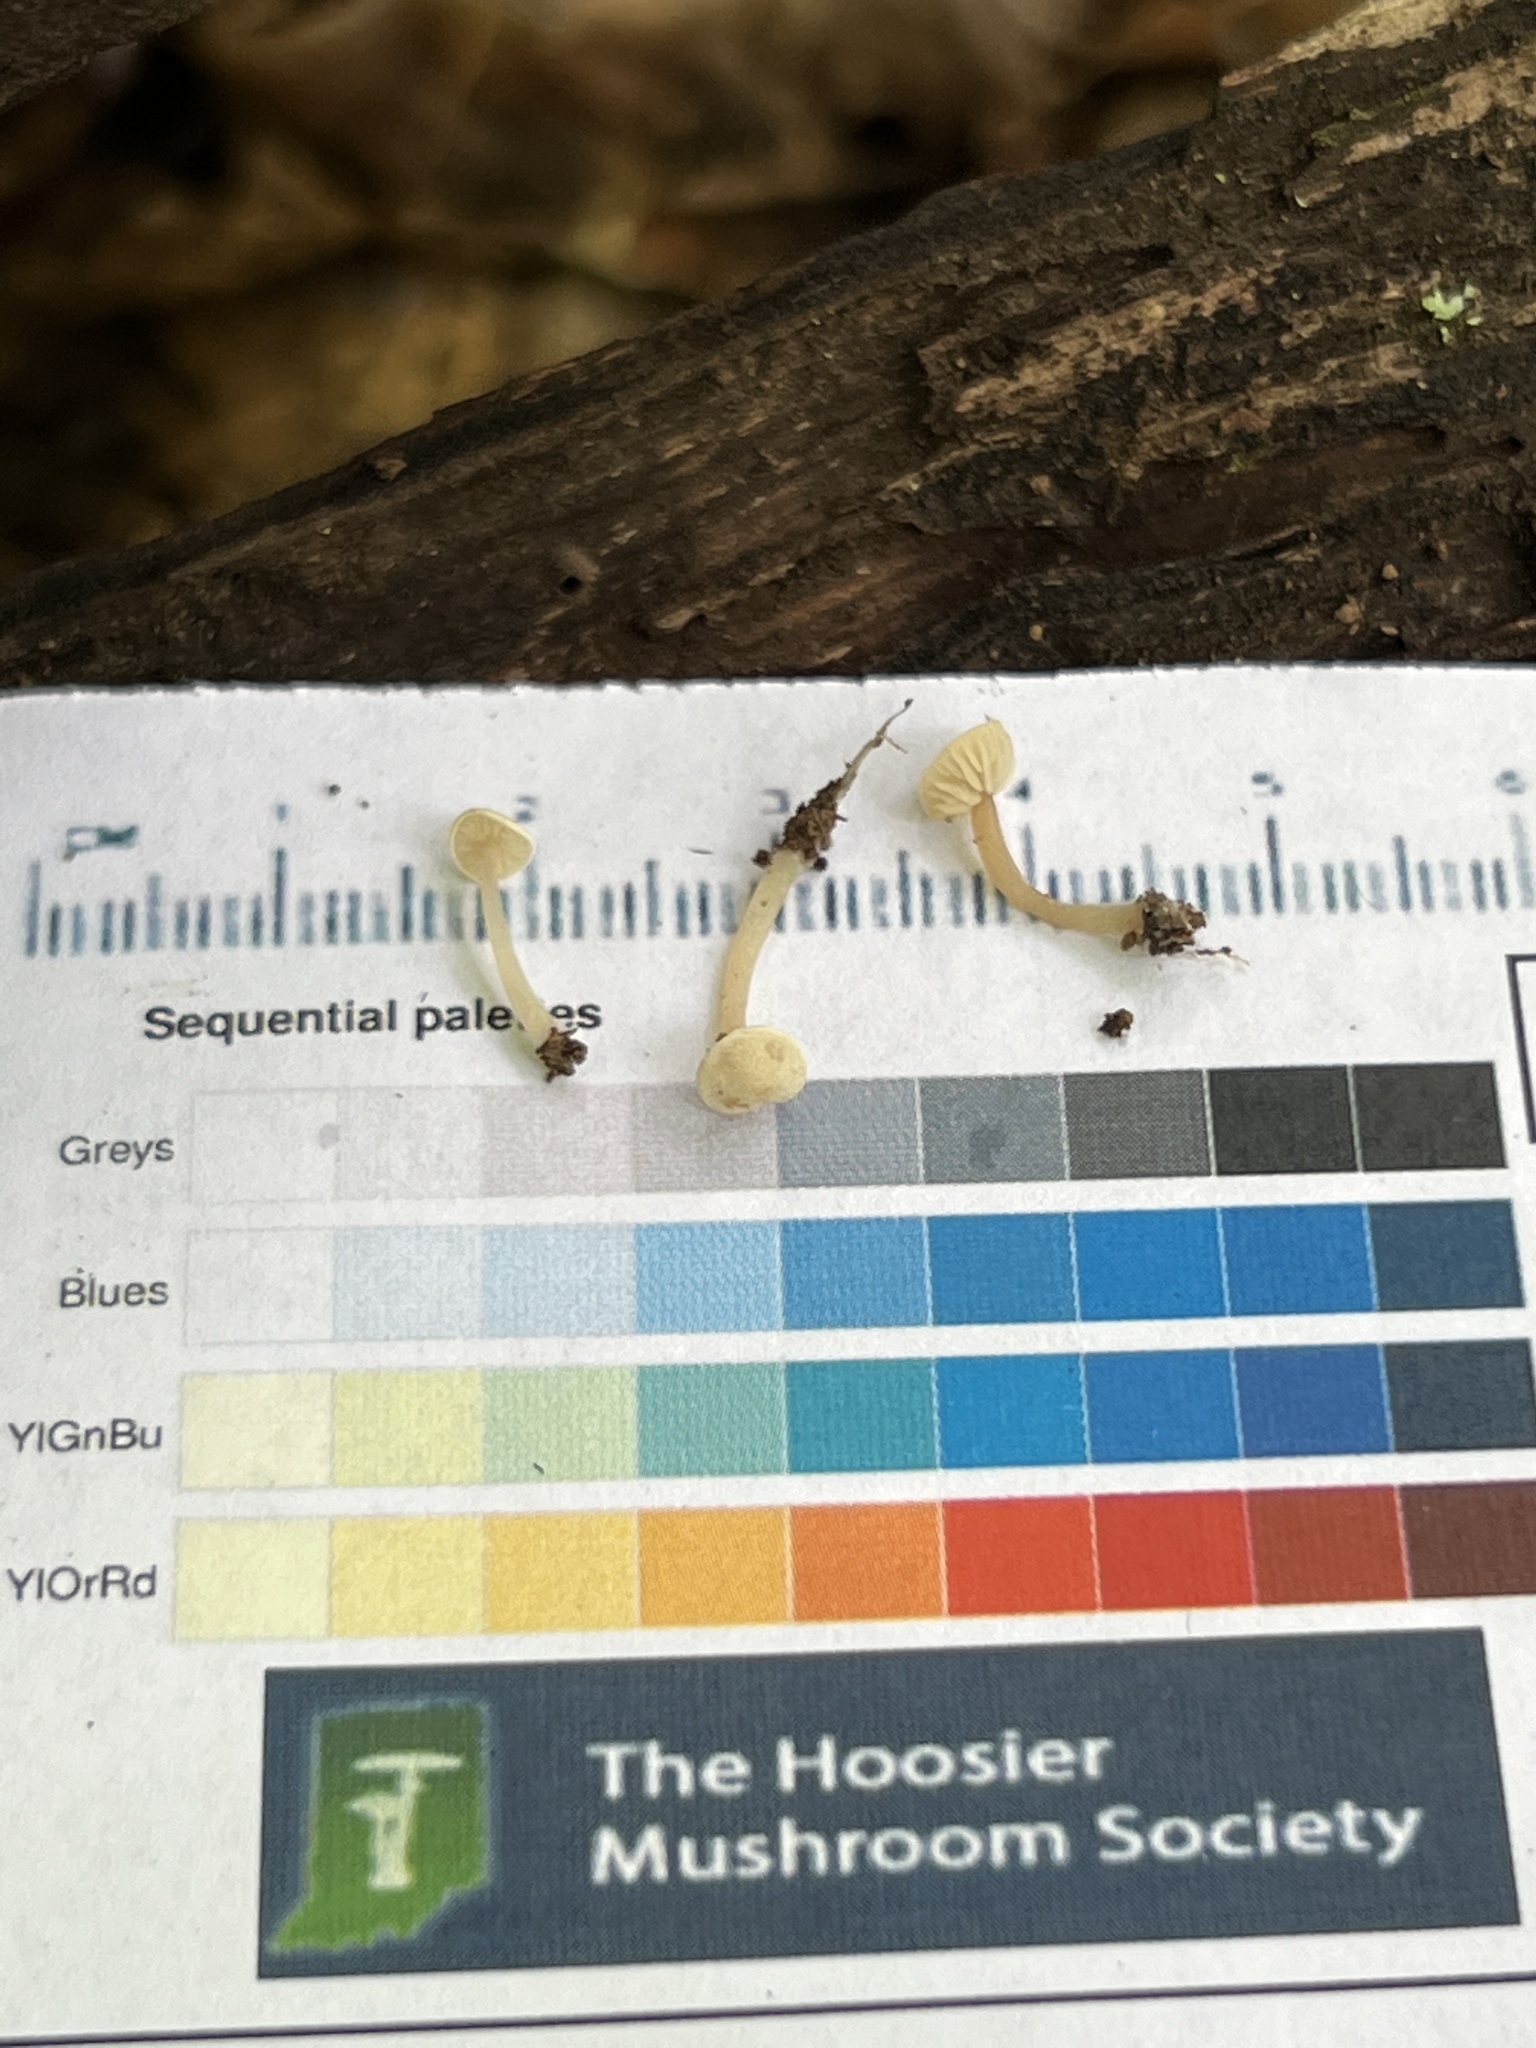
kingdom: Fungi
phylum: Basidiomycota
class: Agaricomycetes
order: Agaricales
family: Callistosporiaceae
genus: Callistosporium
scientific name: Callistosporium pseudofelleum
